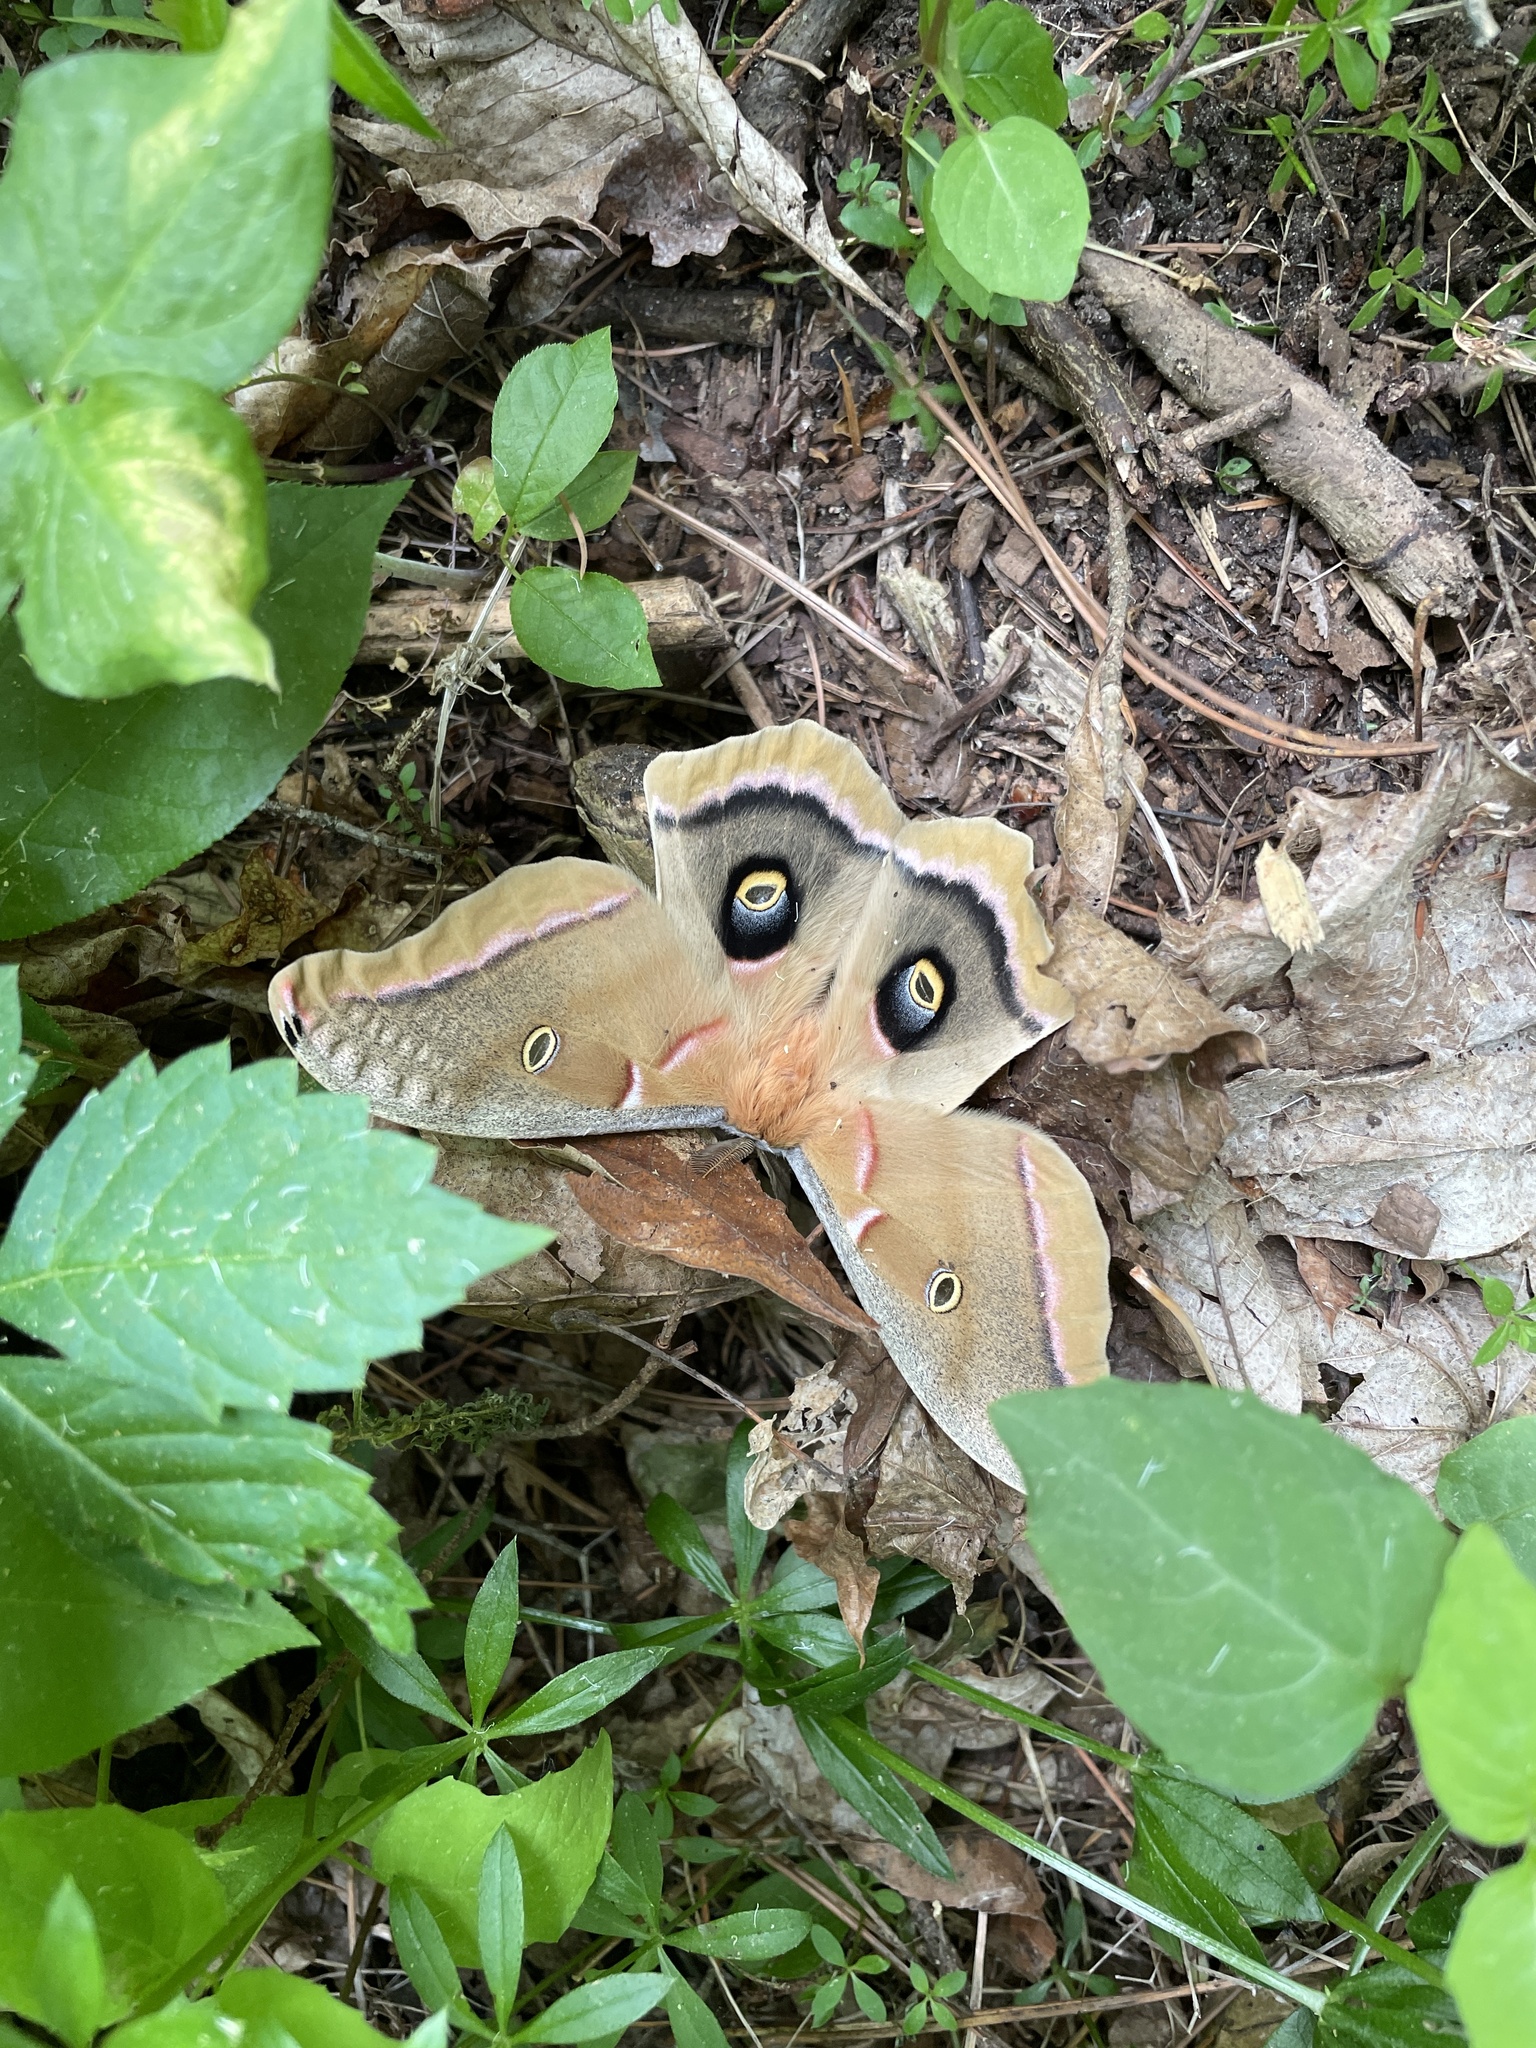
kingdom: Animalia
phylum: Arthropoda
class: Insecta
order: Lepidoptera
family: Saturniidae
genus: Antheraea
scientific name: Antheraea polyphemus
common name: Polyphemus moth
